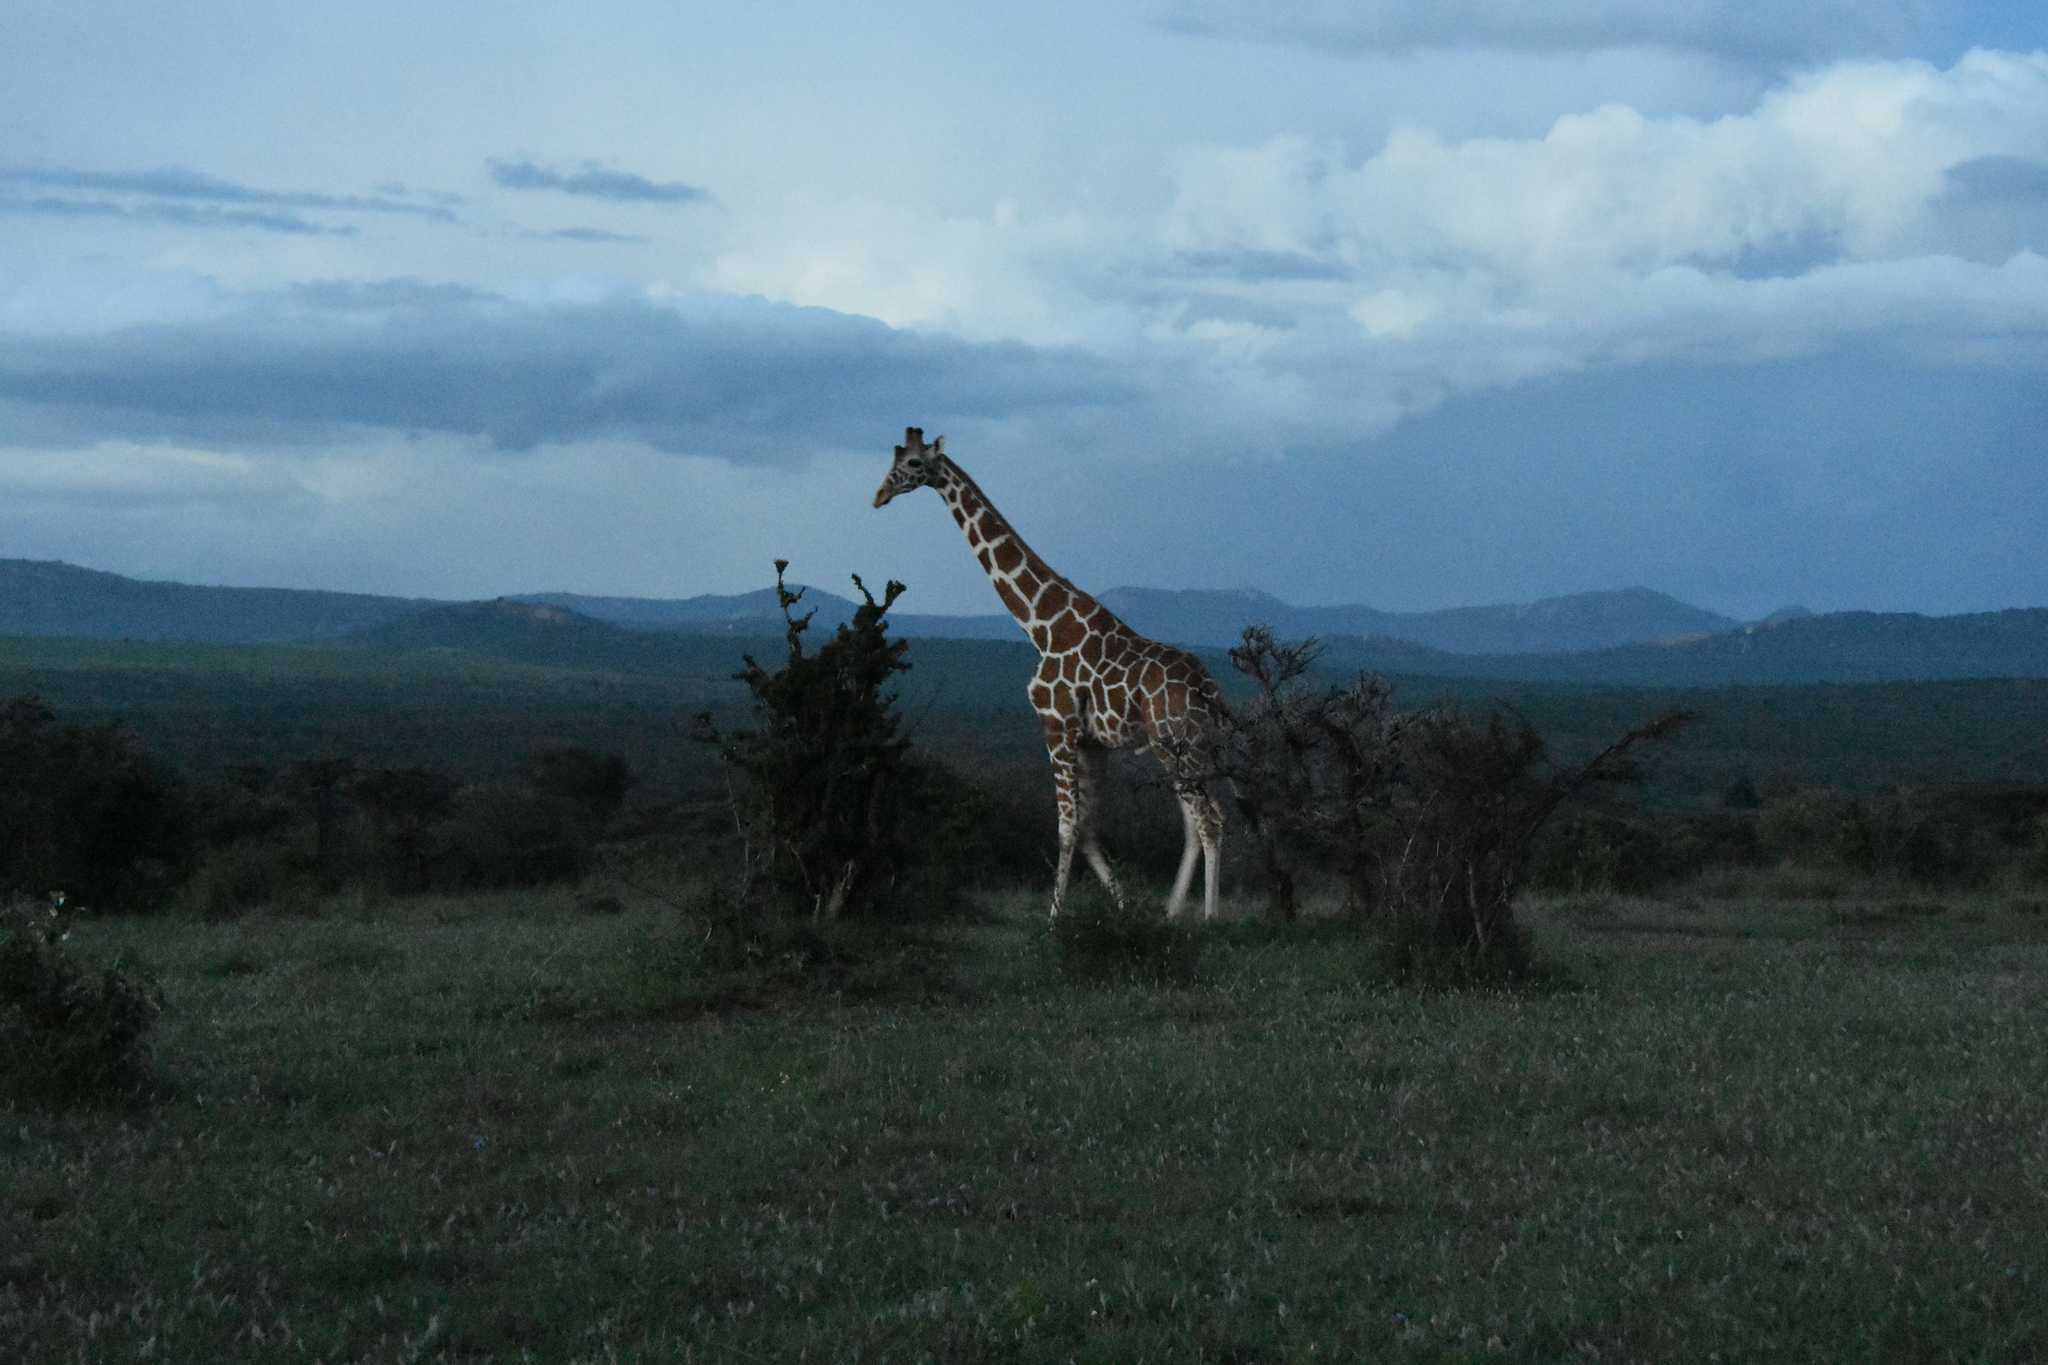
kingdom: Animalia
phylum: Chordata
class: Mammalia
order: Artiodactyla
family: Giraffidae
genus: Giraffa
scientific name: Giraffa reticulata
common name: Reticulated giraffe
